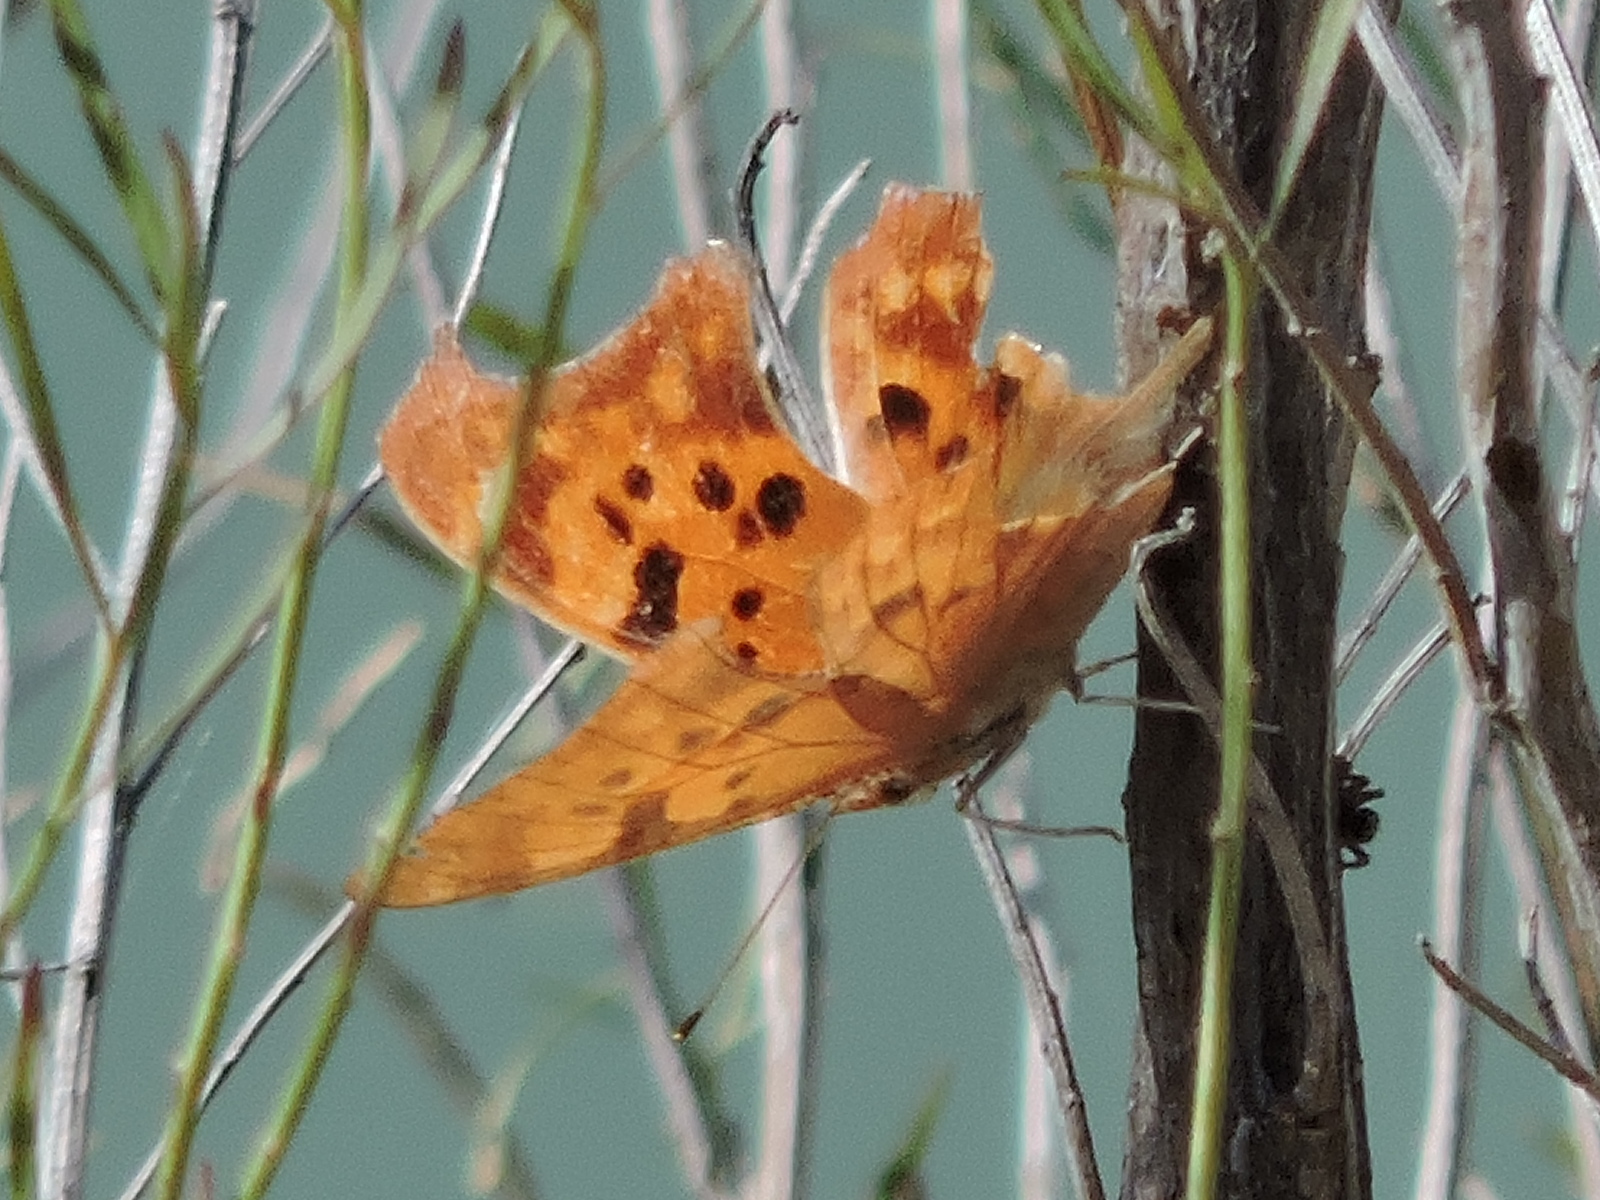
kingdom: Animalia
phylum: Arthropoda
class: Insecta
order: Lepidoptera
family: Nymphalidae
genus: Polygonia
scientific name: Polygonia interrogationis
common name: Question mark
